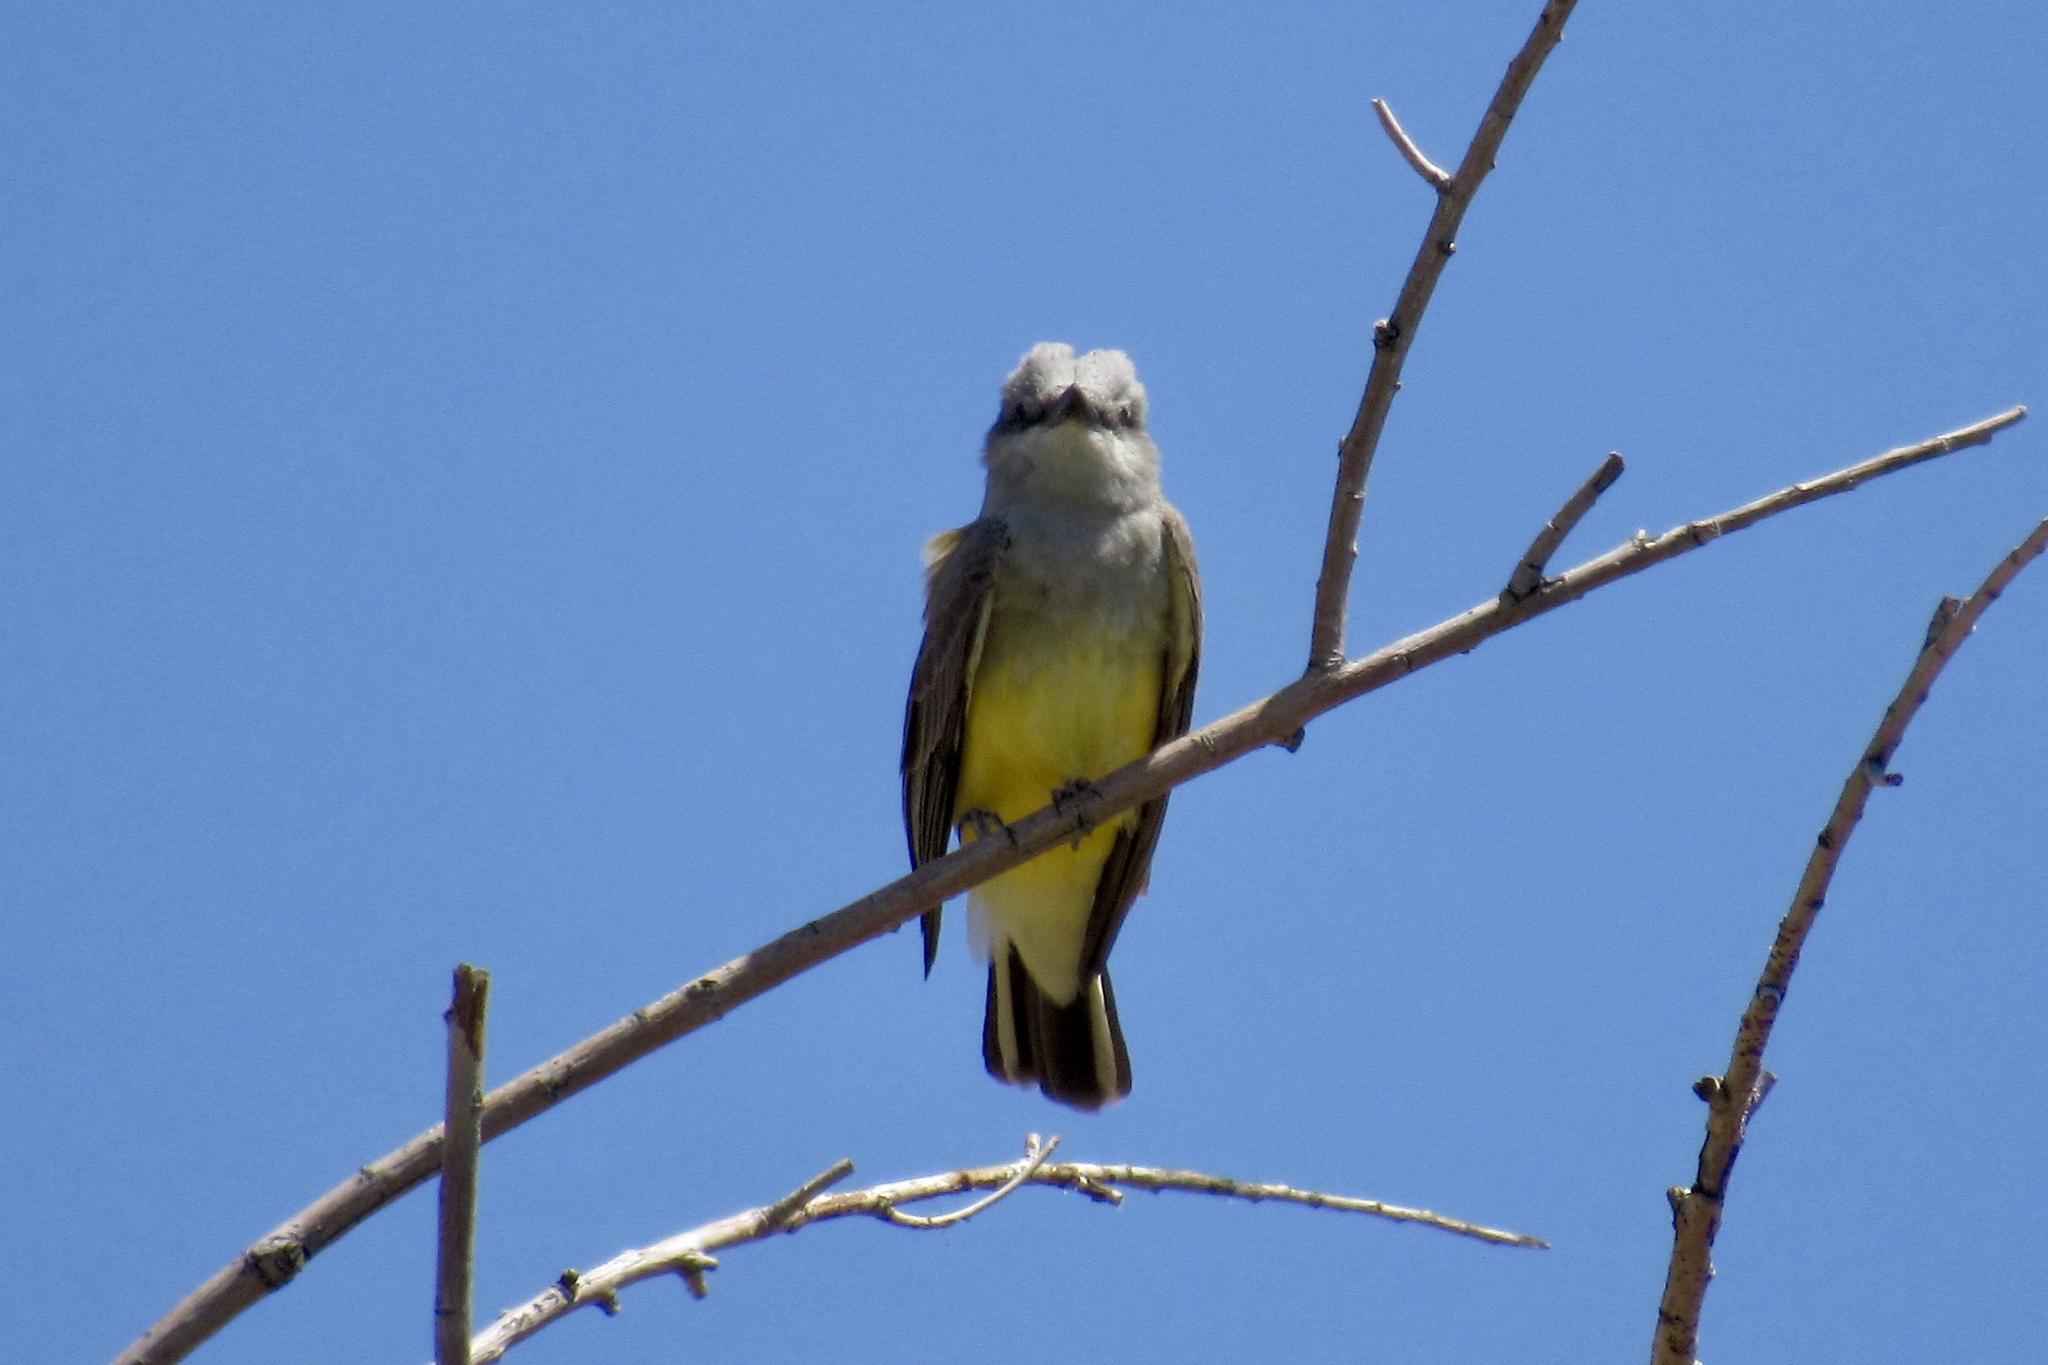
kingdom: Animalia
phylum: Chordata
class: Aves
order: Passeriformes
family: Tyrannidae
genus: Tyrannus
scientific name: Tyrannus verticalis
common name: Western kingbird
